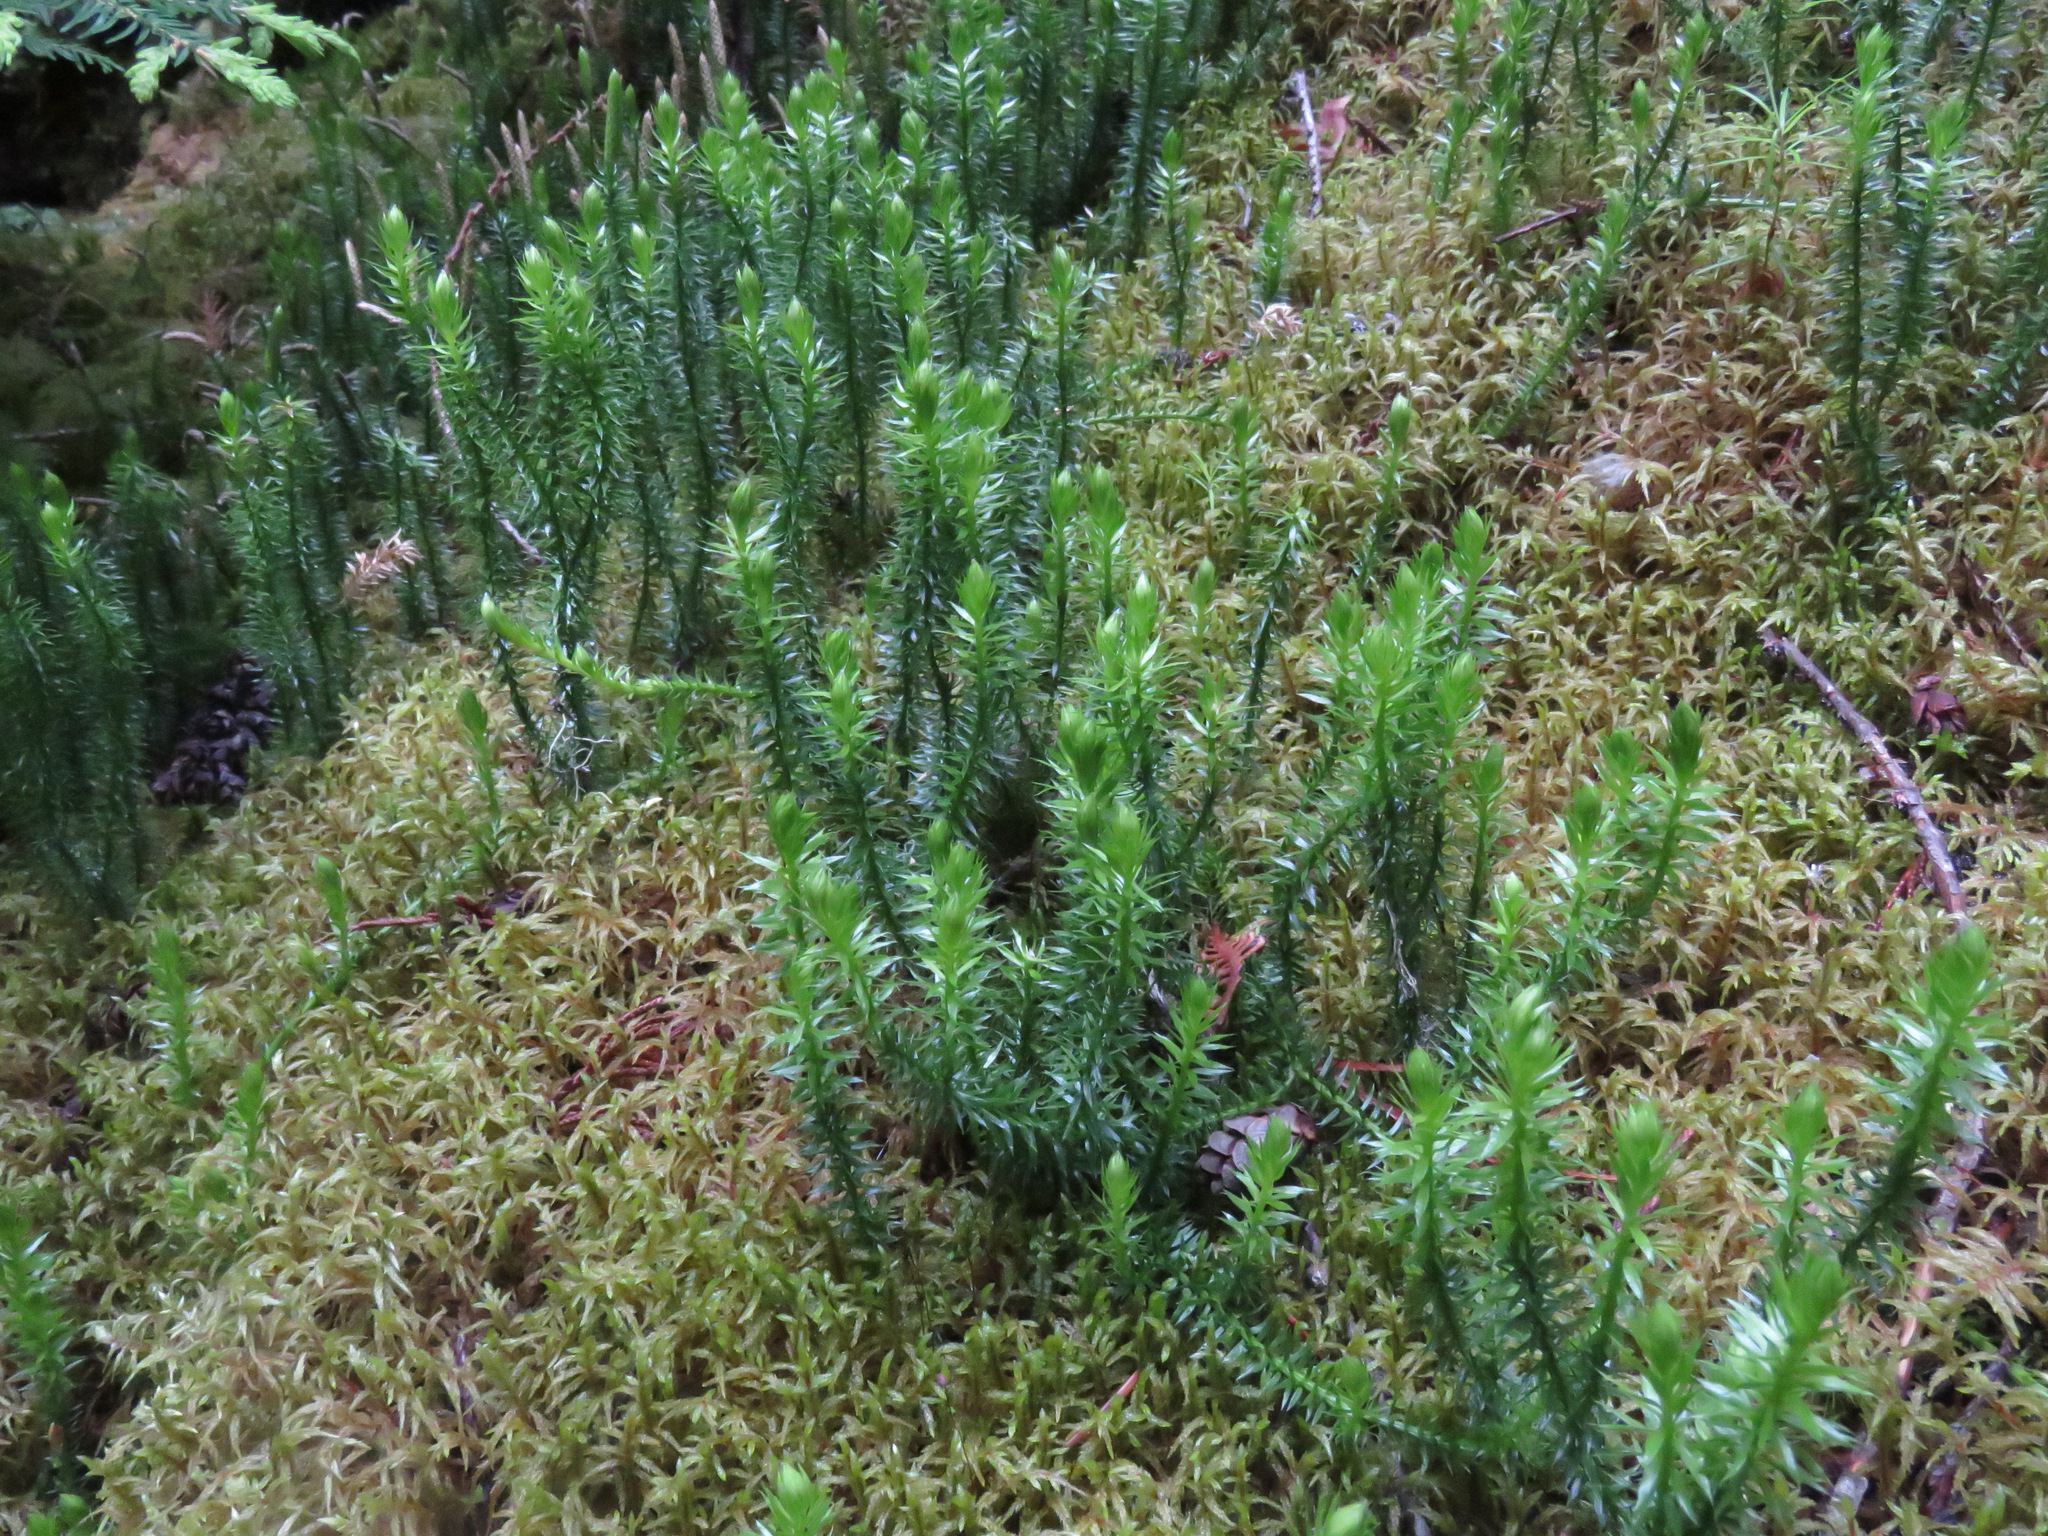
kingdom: Plantae
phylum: Tracheophyta
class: Lycopodiopsida
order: Lycopodiales
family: Lycopodiaceae
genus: Spinulum
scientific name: Spinulum annotinum
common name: Interrupted club-moss
